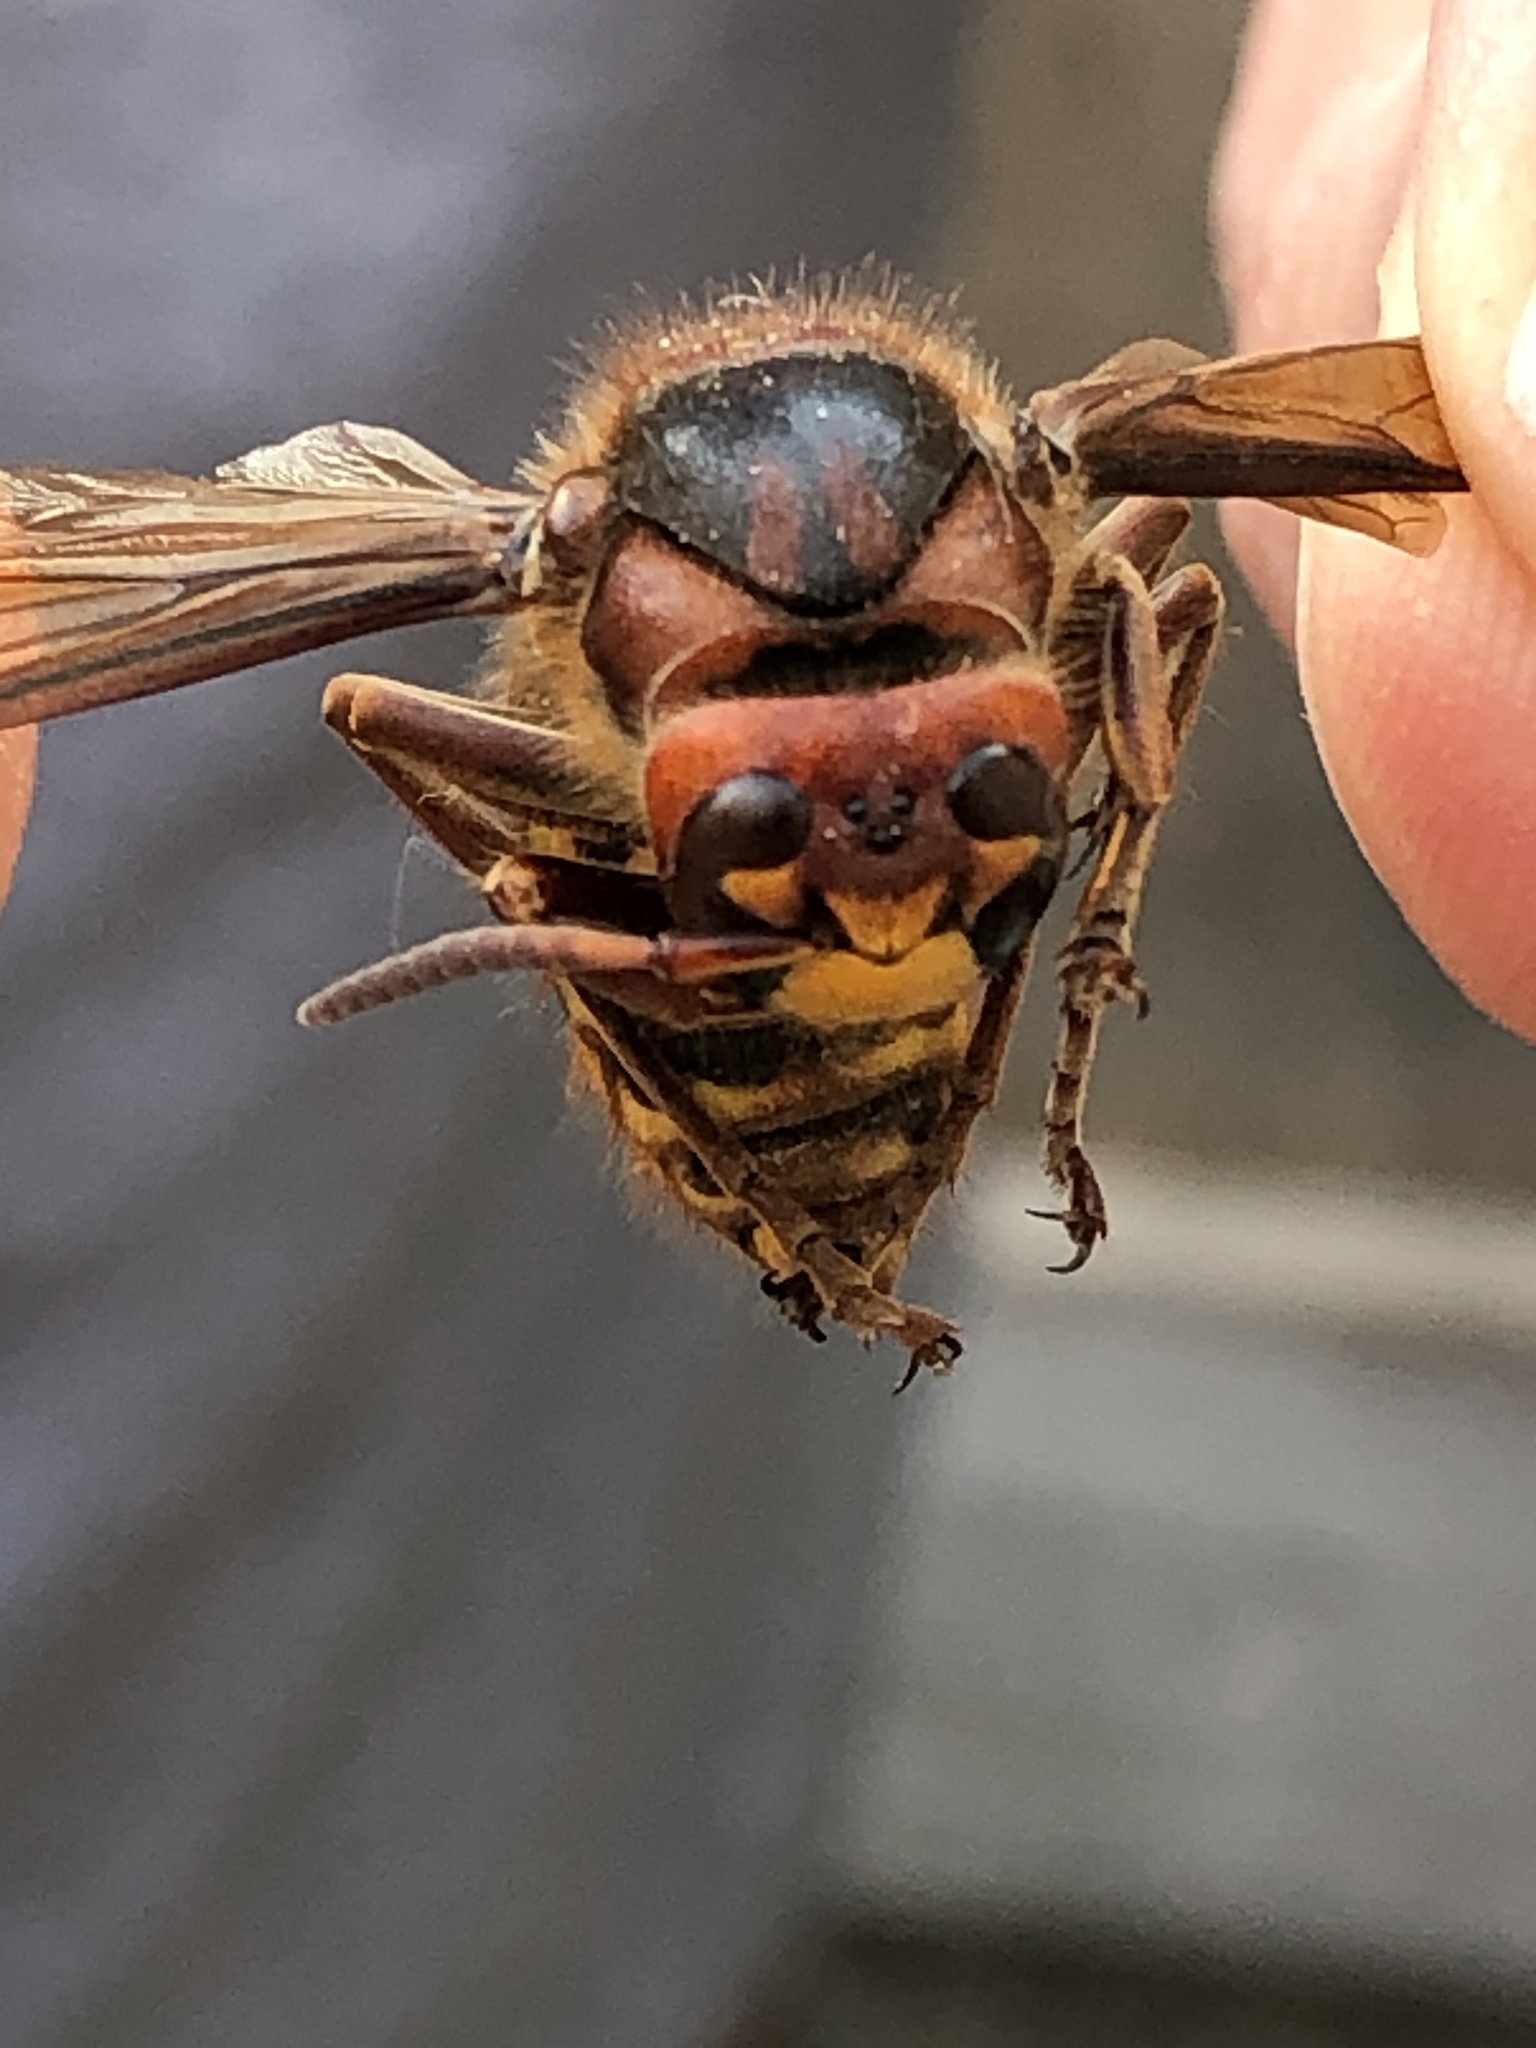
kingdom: Animalia
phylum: Arthropoda
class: Insecta
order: Hymenoptera
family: Vespidae
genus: Vespa
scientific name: Vespa crabro
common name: Hornet
